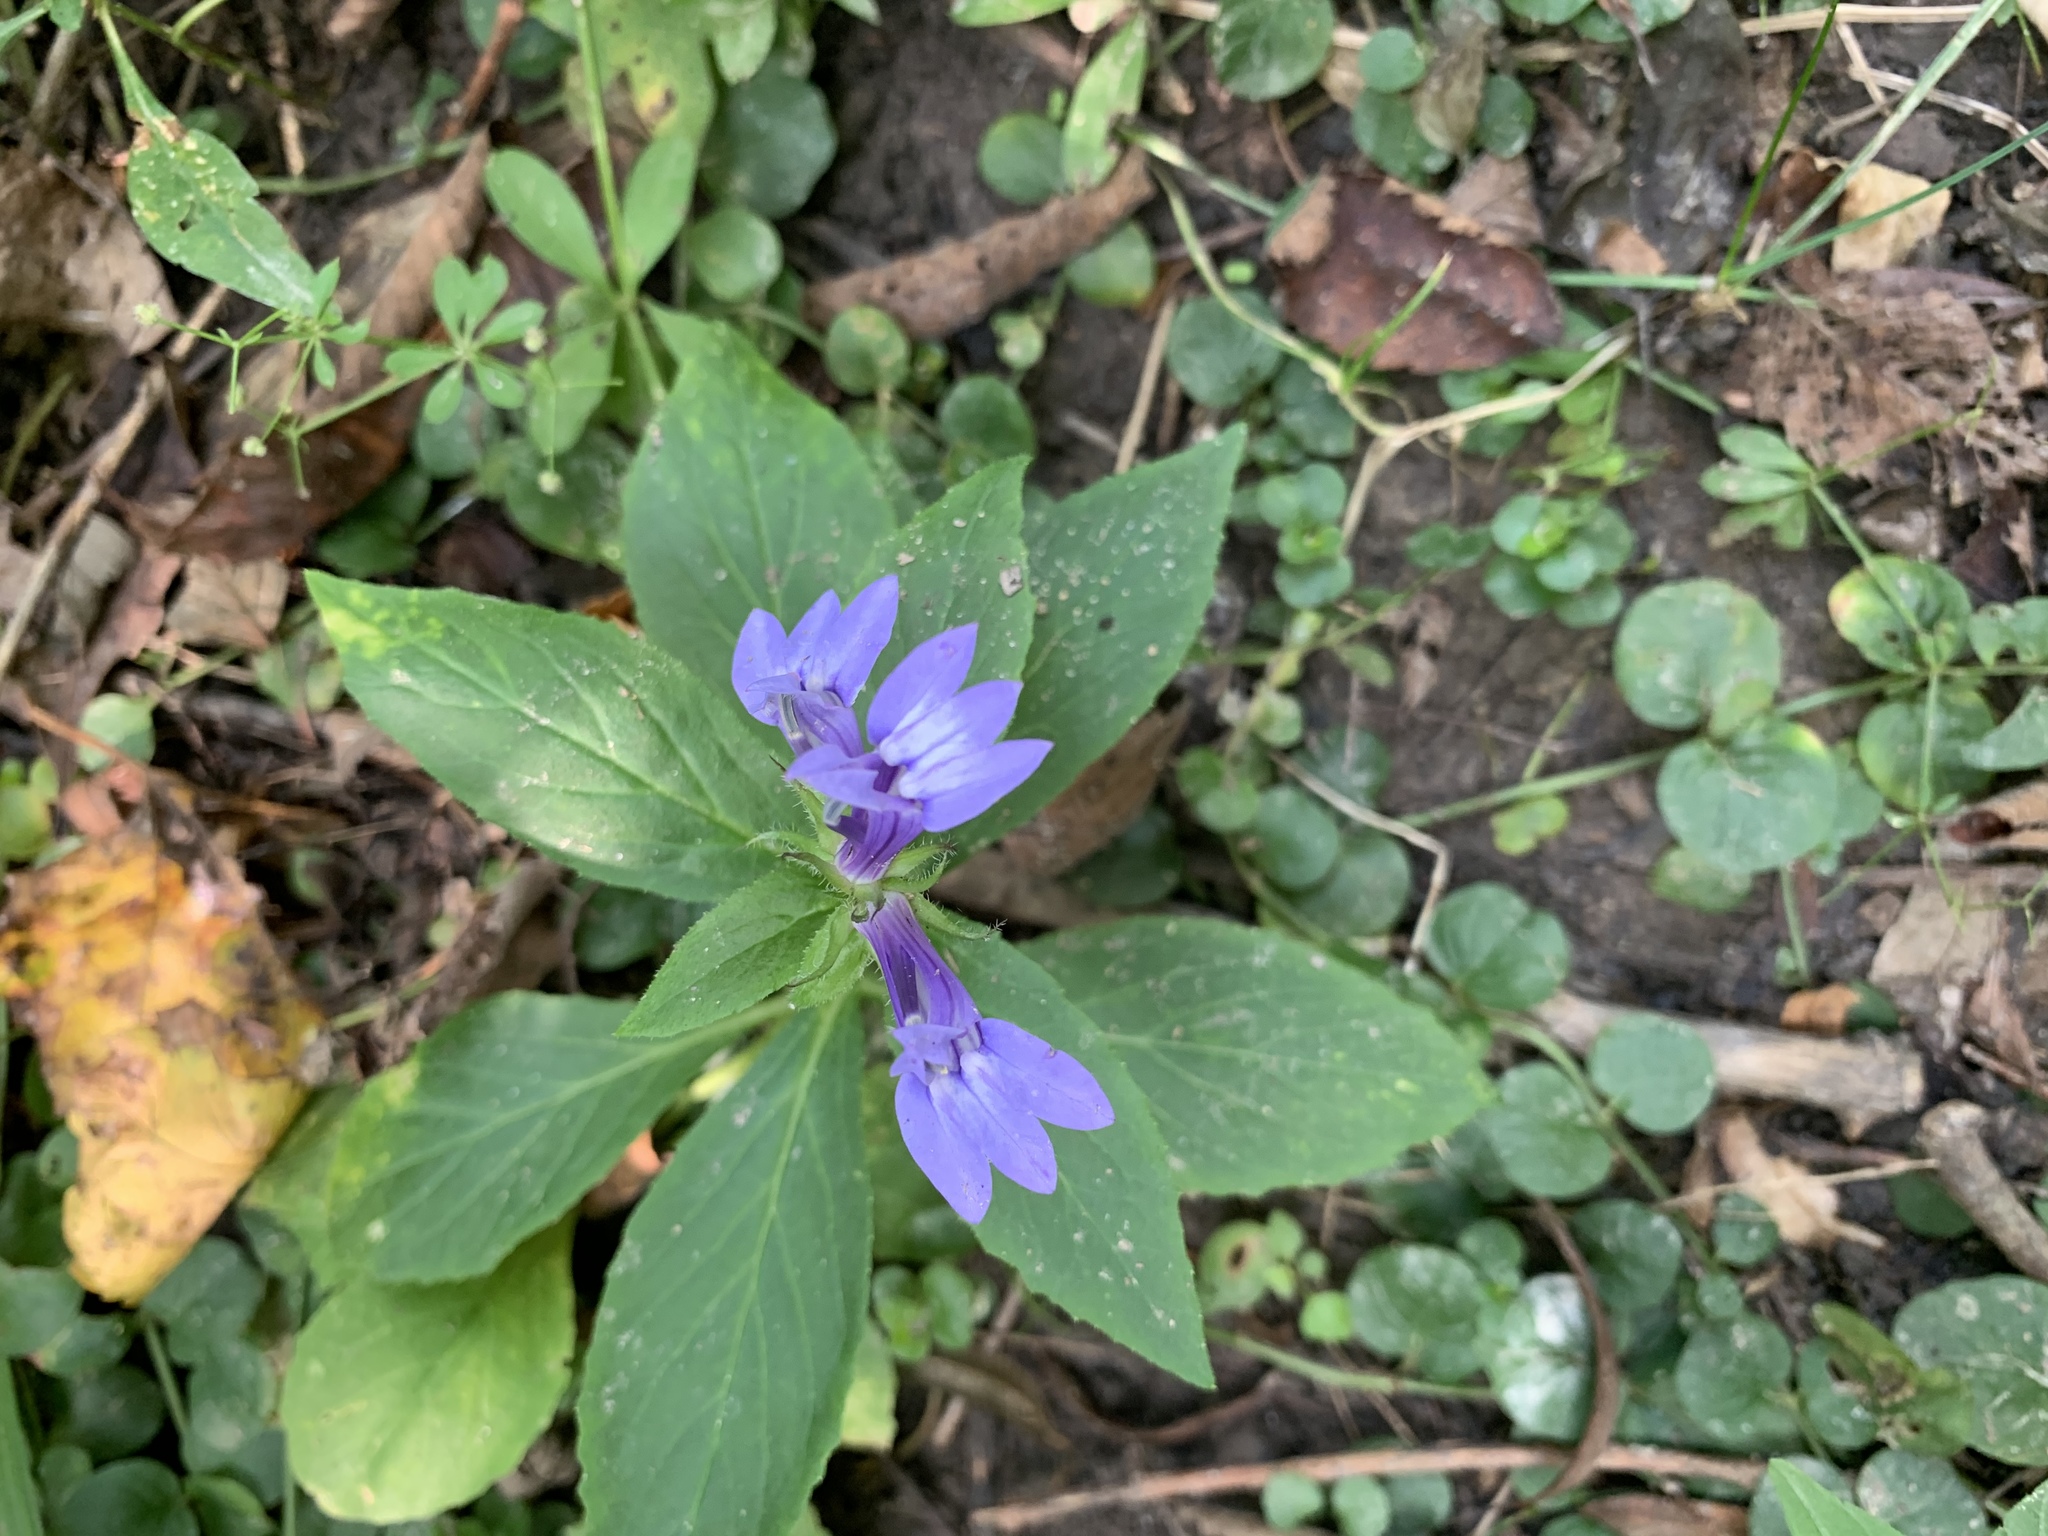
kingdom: Plantae
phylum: Tracheophyta
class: Magnoliopsida
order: Asterales
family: Campanulaceae
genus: Lobelia
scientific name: Lobelia siphilitica
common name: Great lobelia
